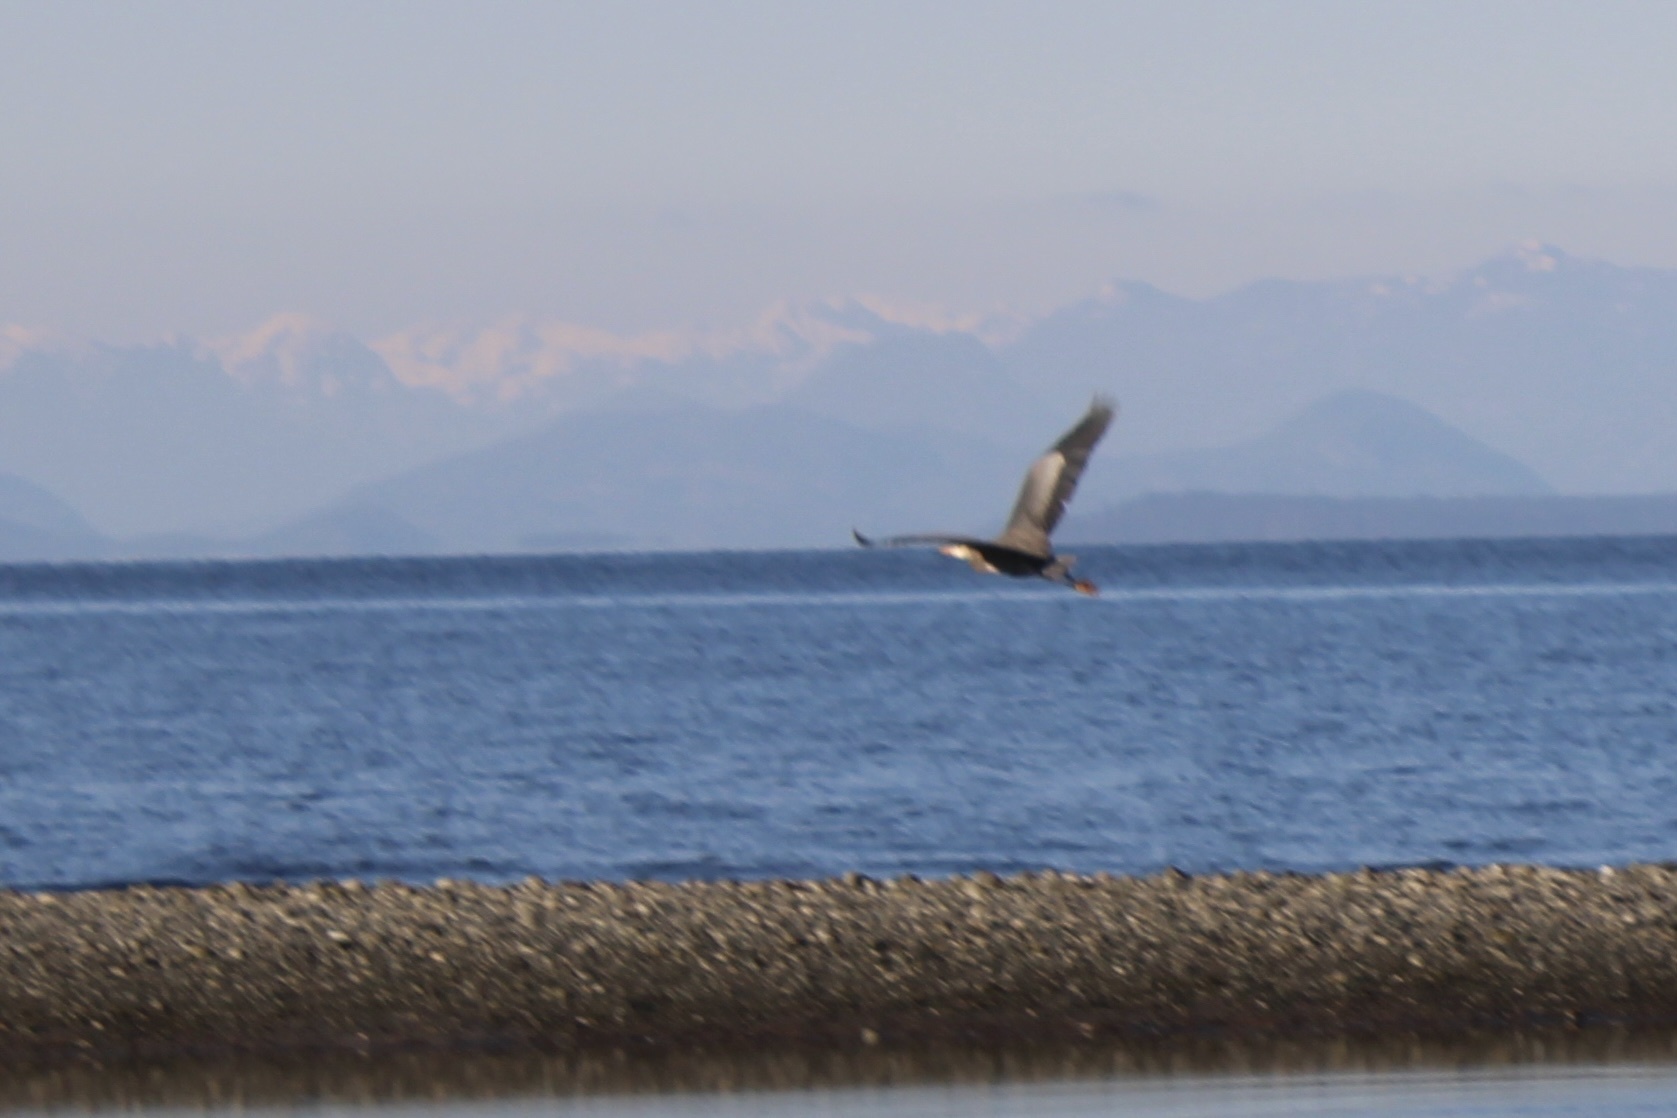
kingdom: Animalia
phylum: Chordata
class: Aves
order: Pelecaniformes
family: Ardeidae
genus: Ardea
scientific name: Ardea herodias
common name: Great blue heron
